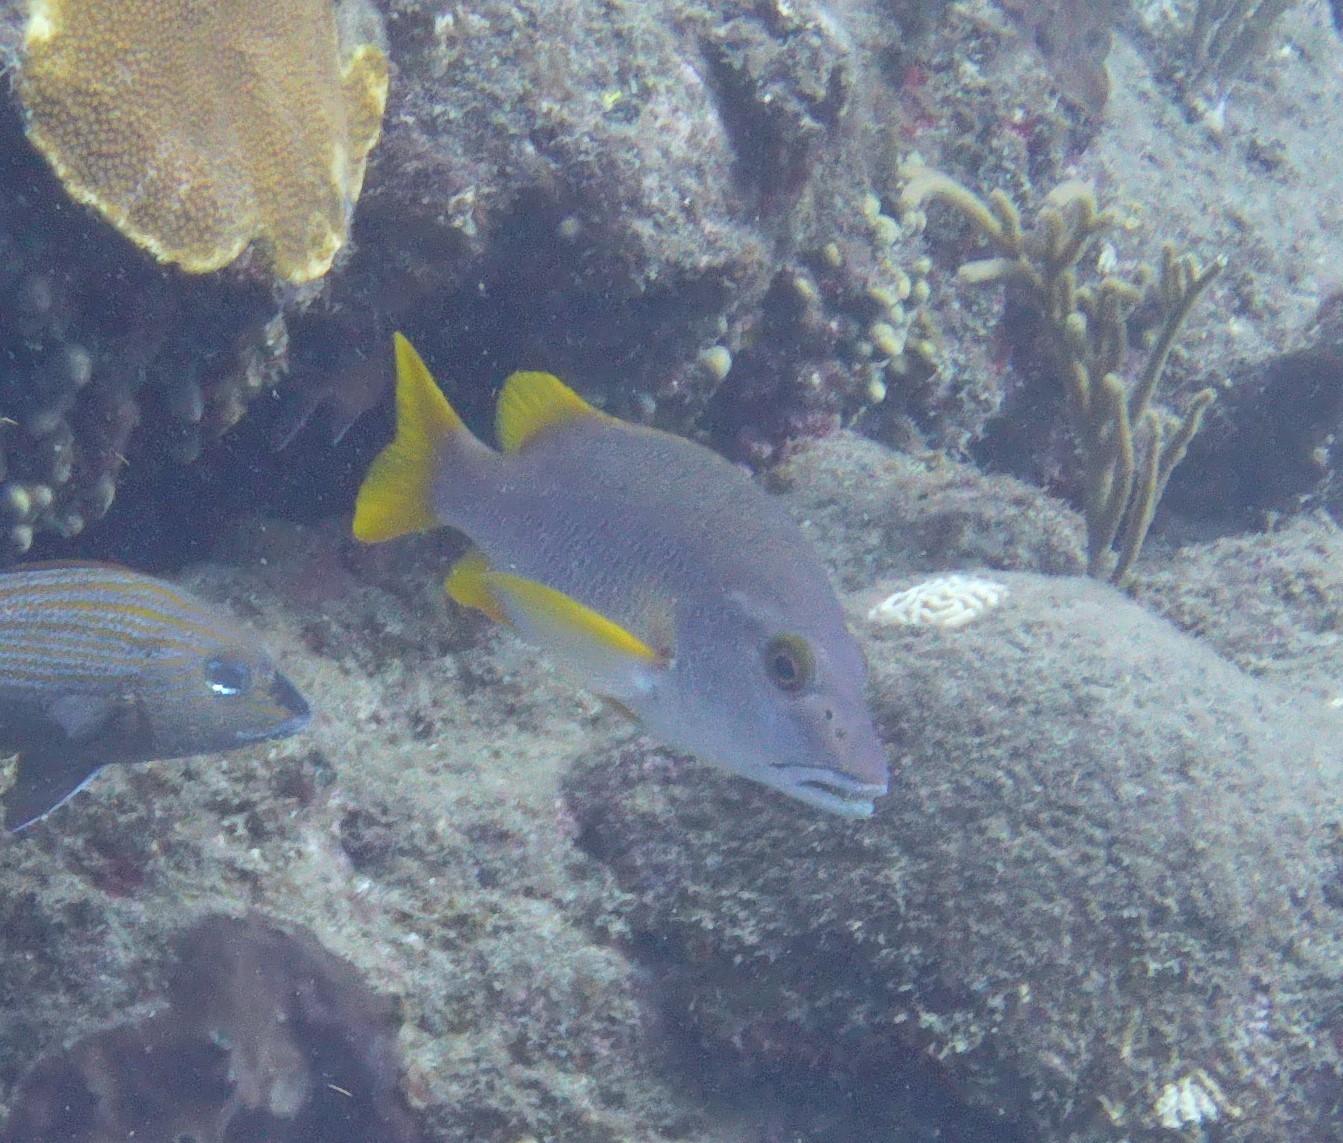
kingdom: Animalia
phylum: Chordata
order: Perciformes
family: Lutjanidae
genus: Lutjanus
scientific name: Lutjanus apodus
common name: Schoolmaster
